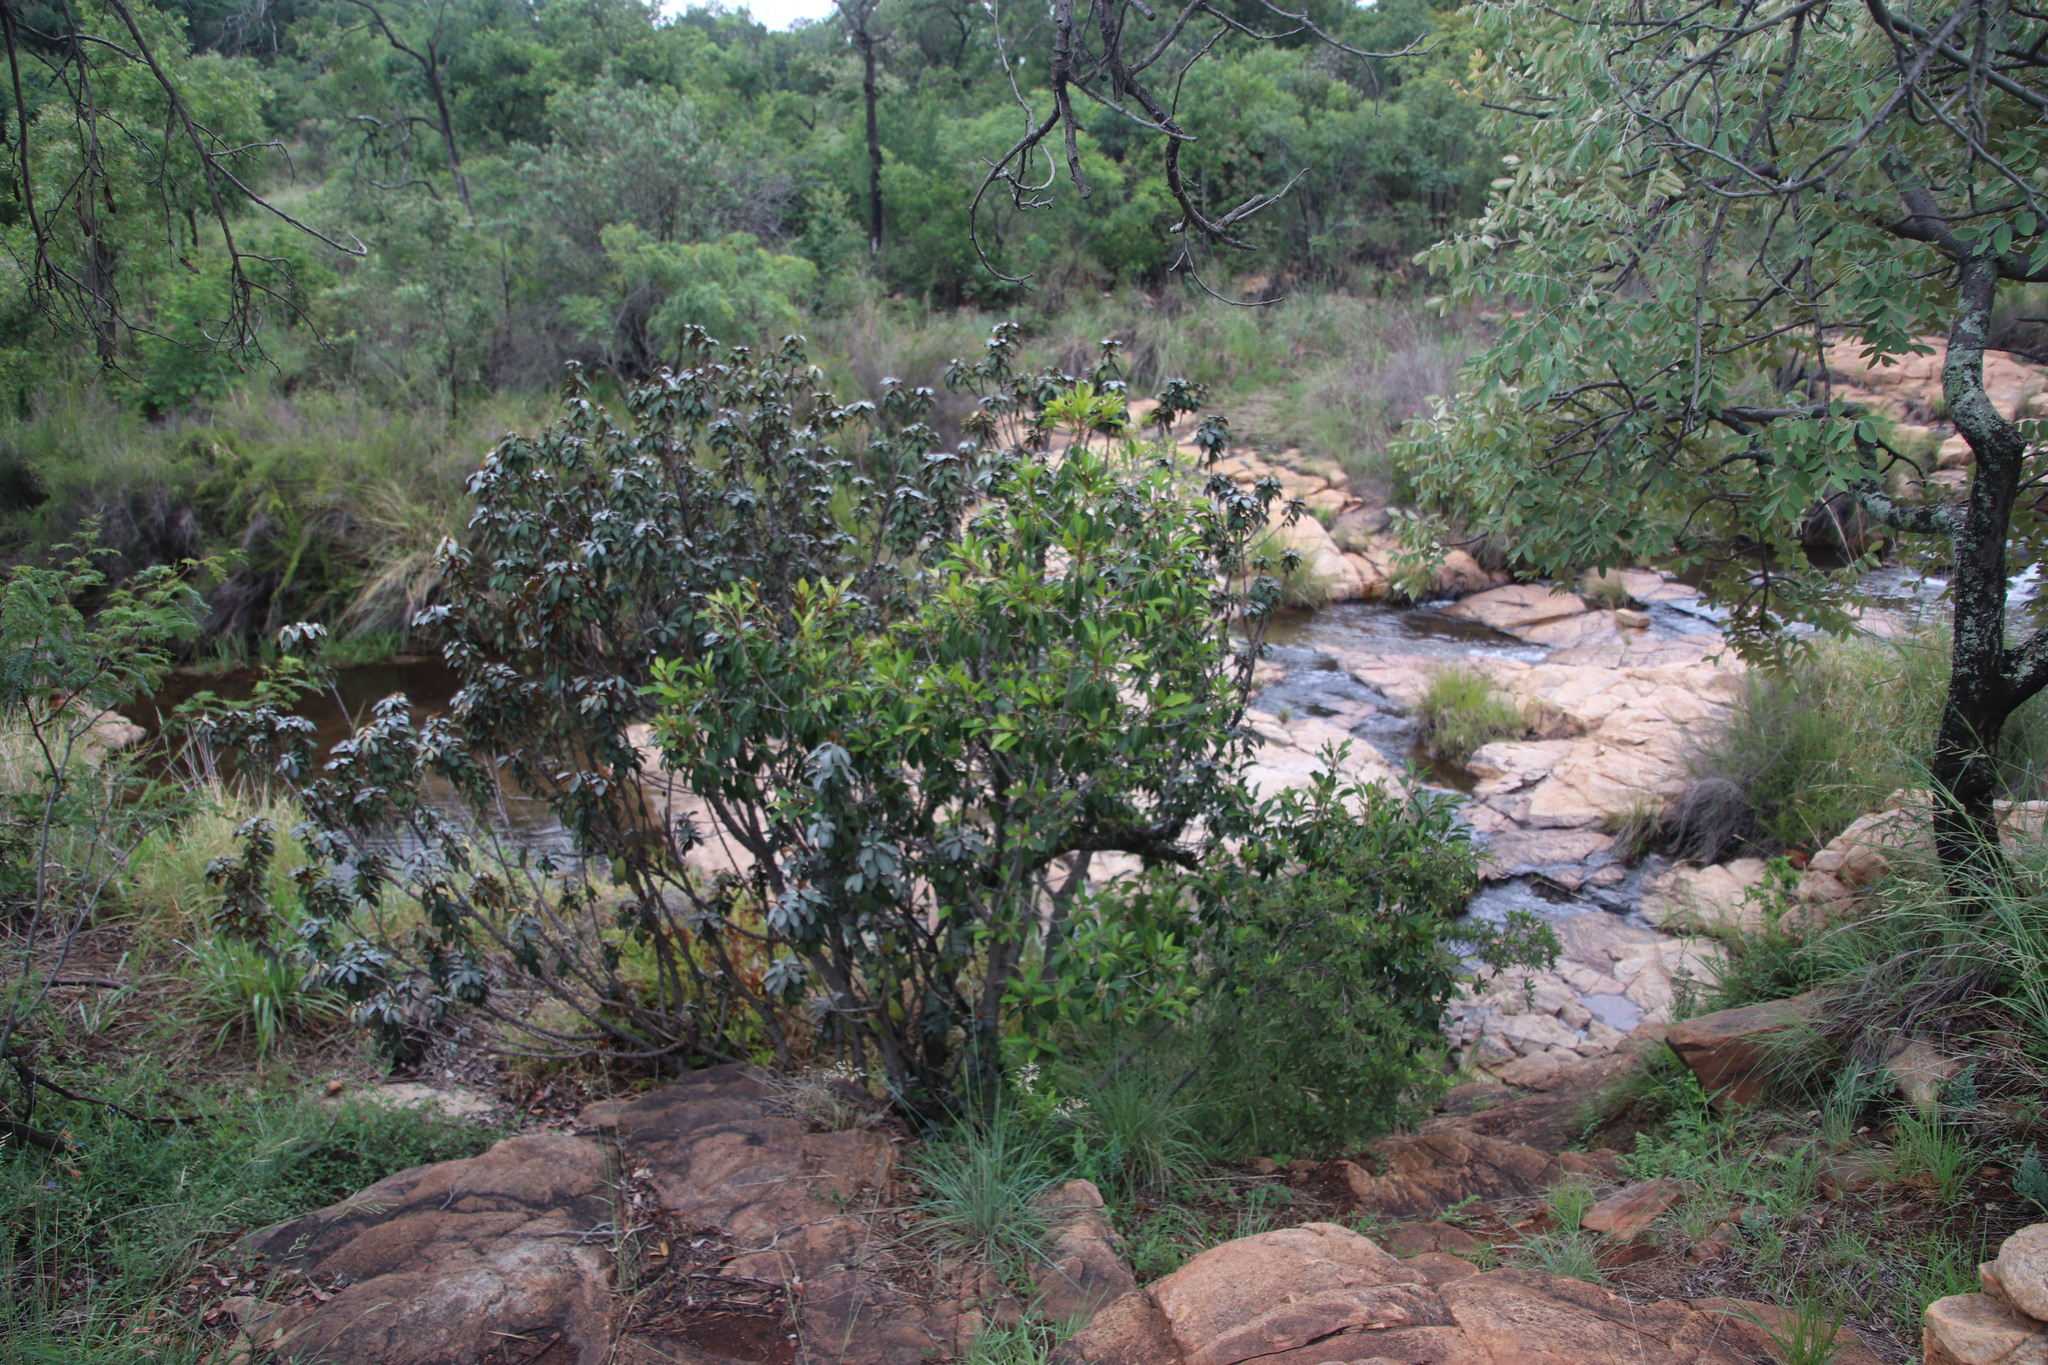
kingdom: Plantae
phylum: Tracheophyta
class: Magnoliopsida
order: Ericales
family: Sapotaceae
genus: Mimusops
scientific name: Mimusops zeyheri
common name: Transvaal red milkwood
